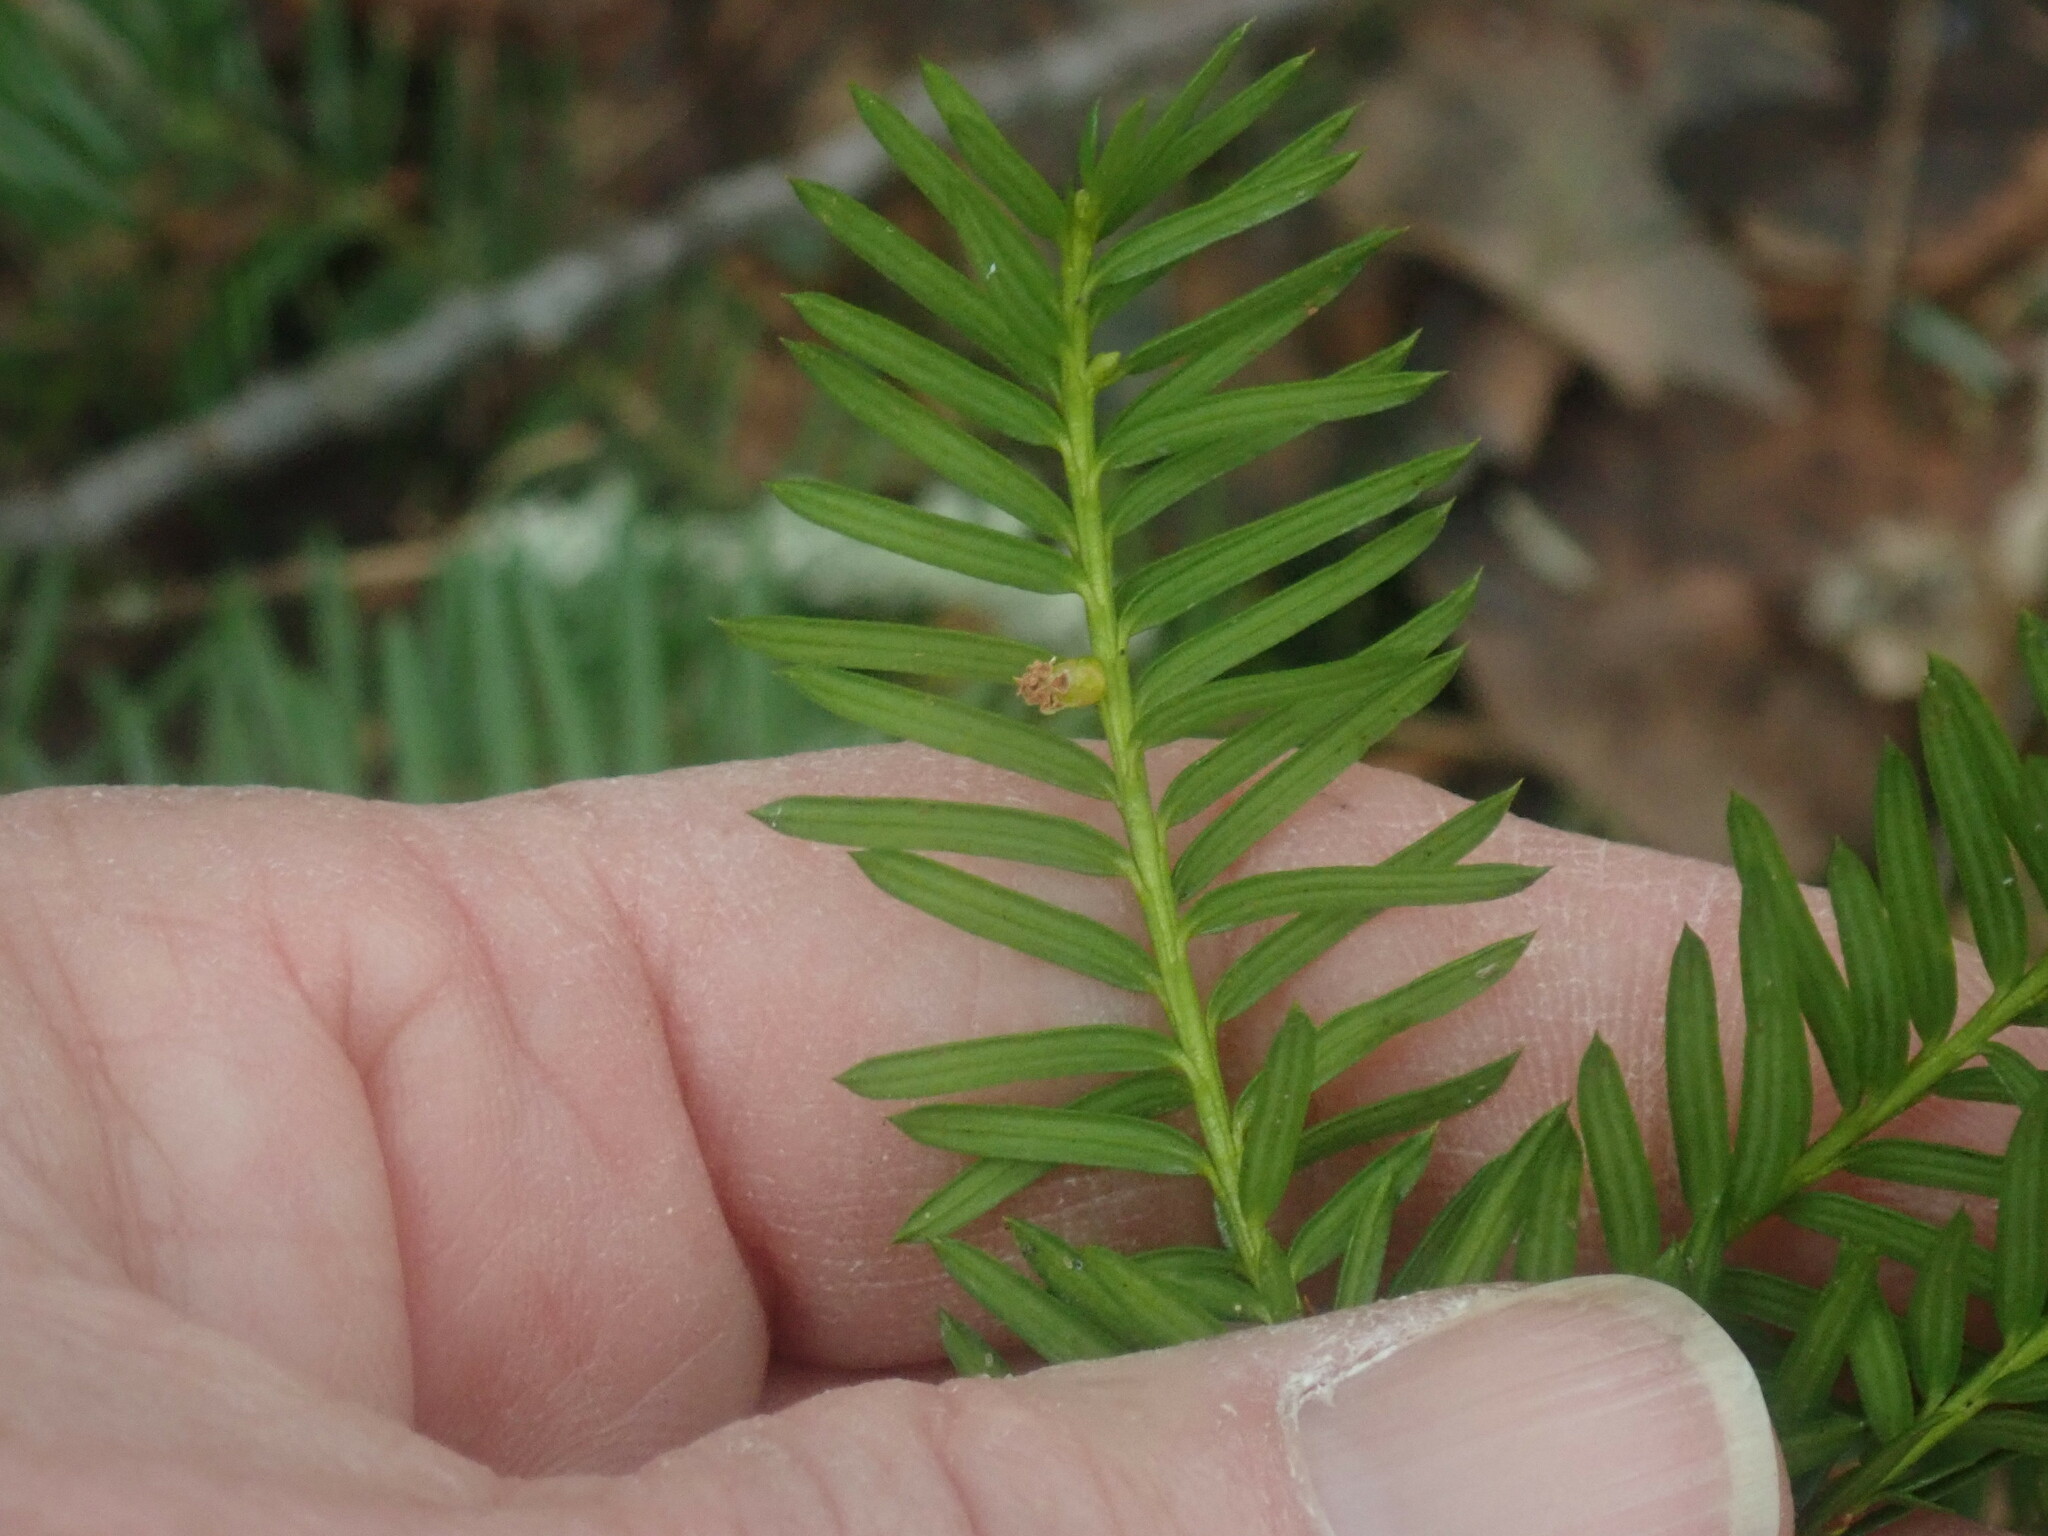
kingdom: Plantae
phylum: Tracheophyta
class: Pinopsida
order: Pinales
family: Taxaceae
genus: Taxus
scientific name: Taxus canadensis
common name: American yew
